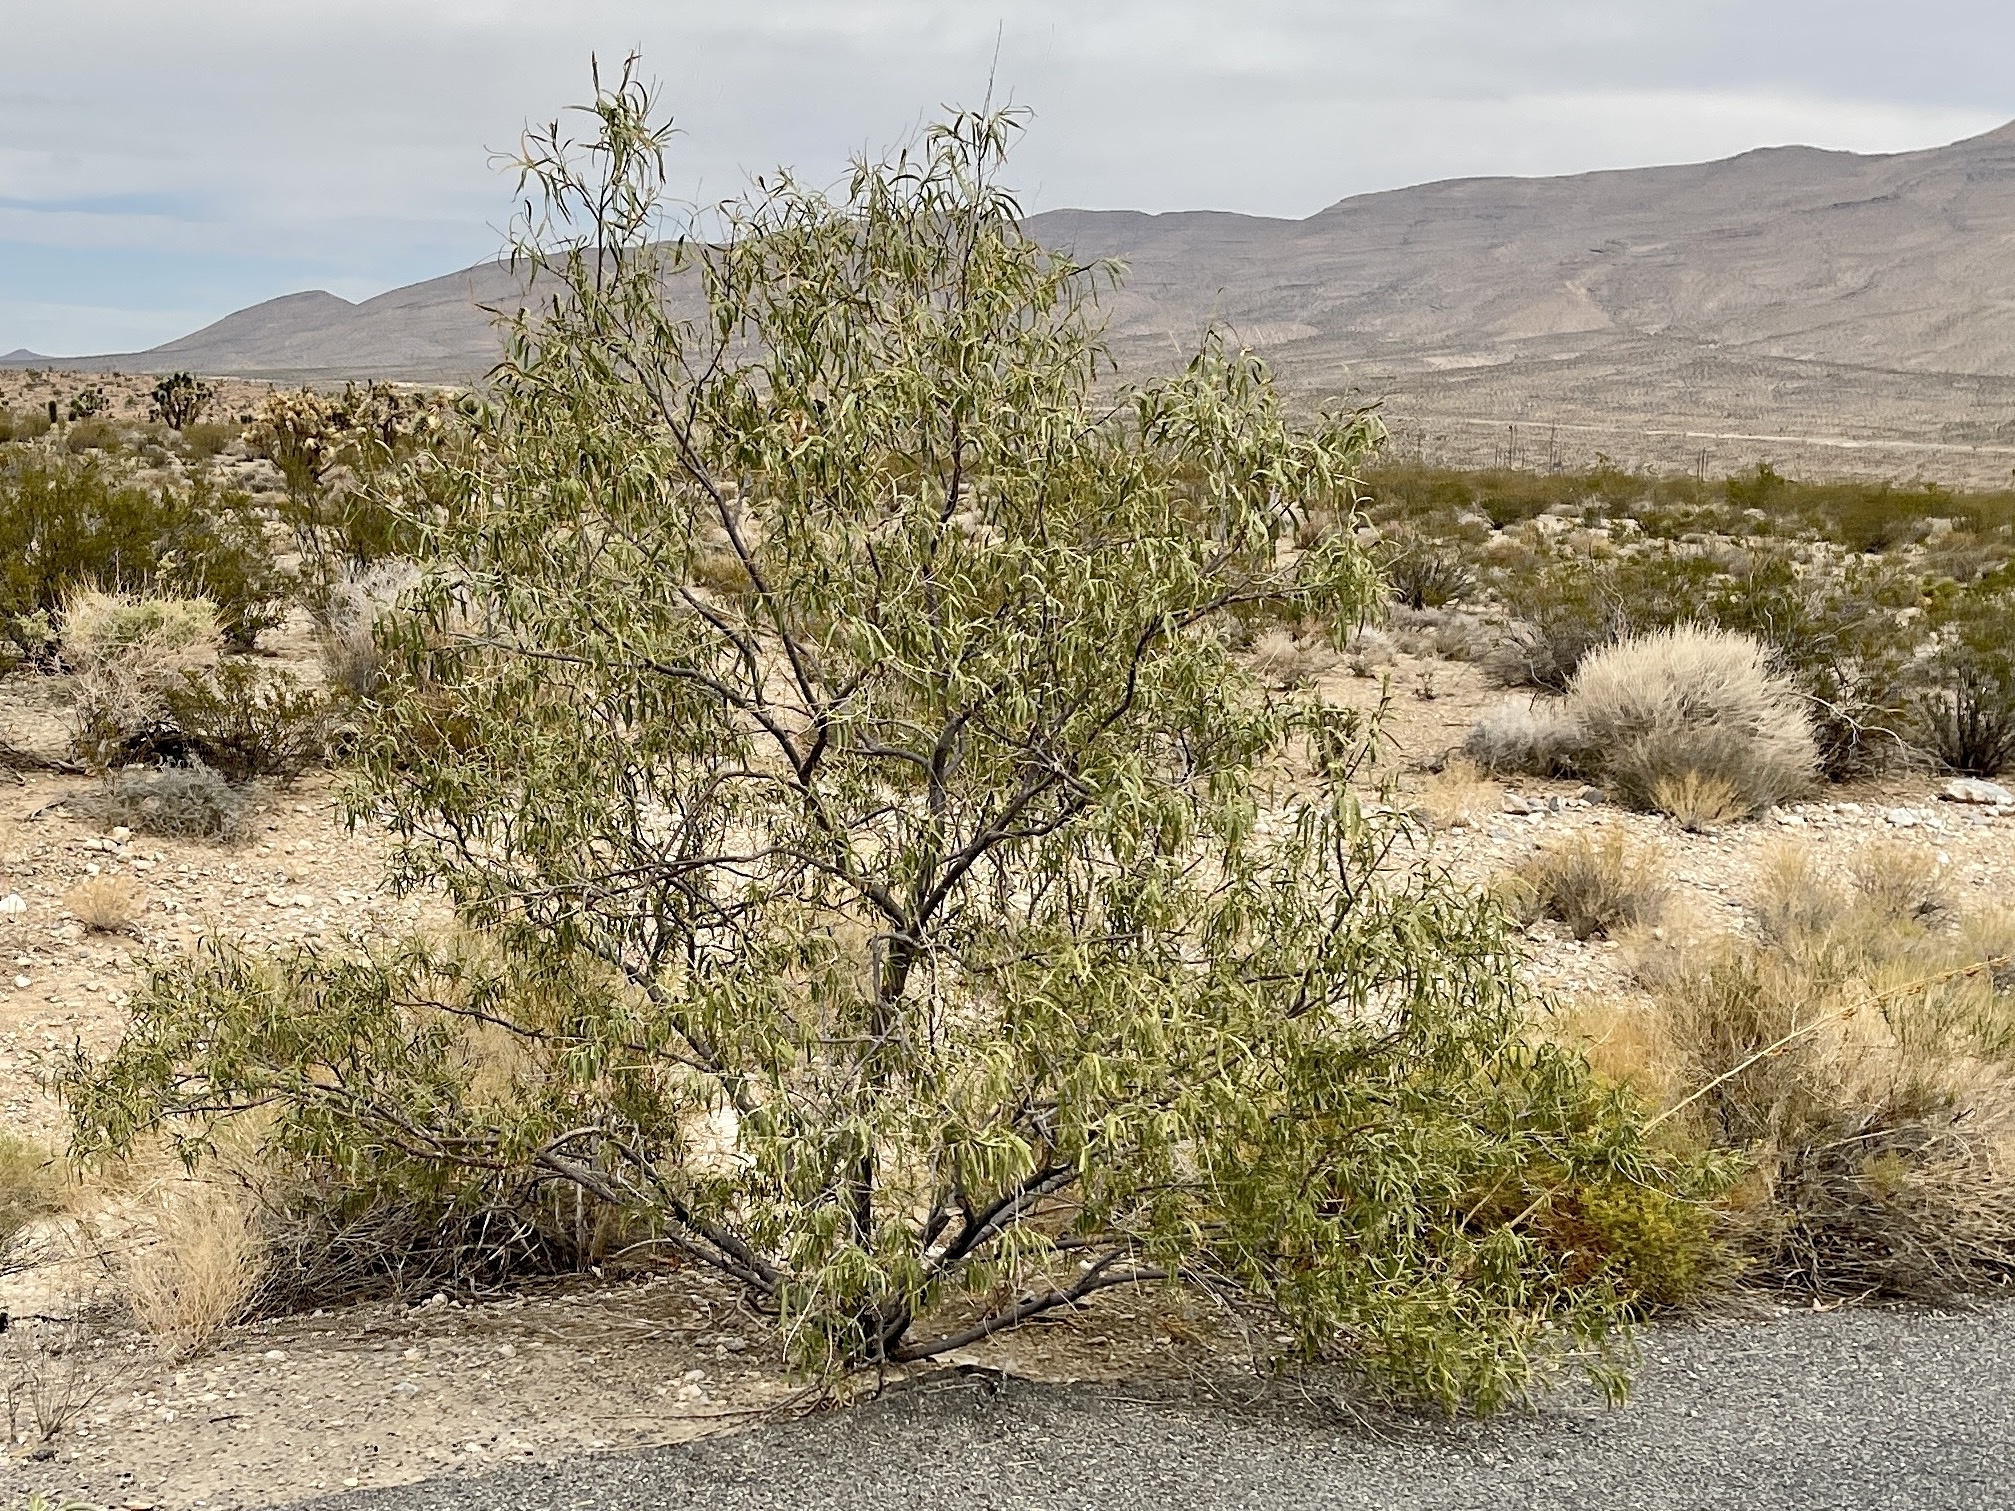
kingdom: Plantae
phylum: Tracheophyta
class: Magnoliopsida
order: Lamiales
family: Bignoniaceae
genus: Chilopsis
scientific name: Chilopsis linearis
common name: Desert-willow
